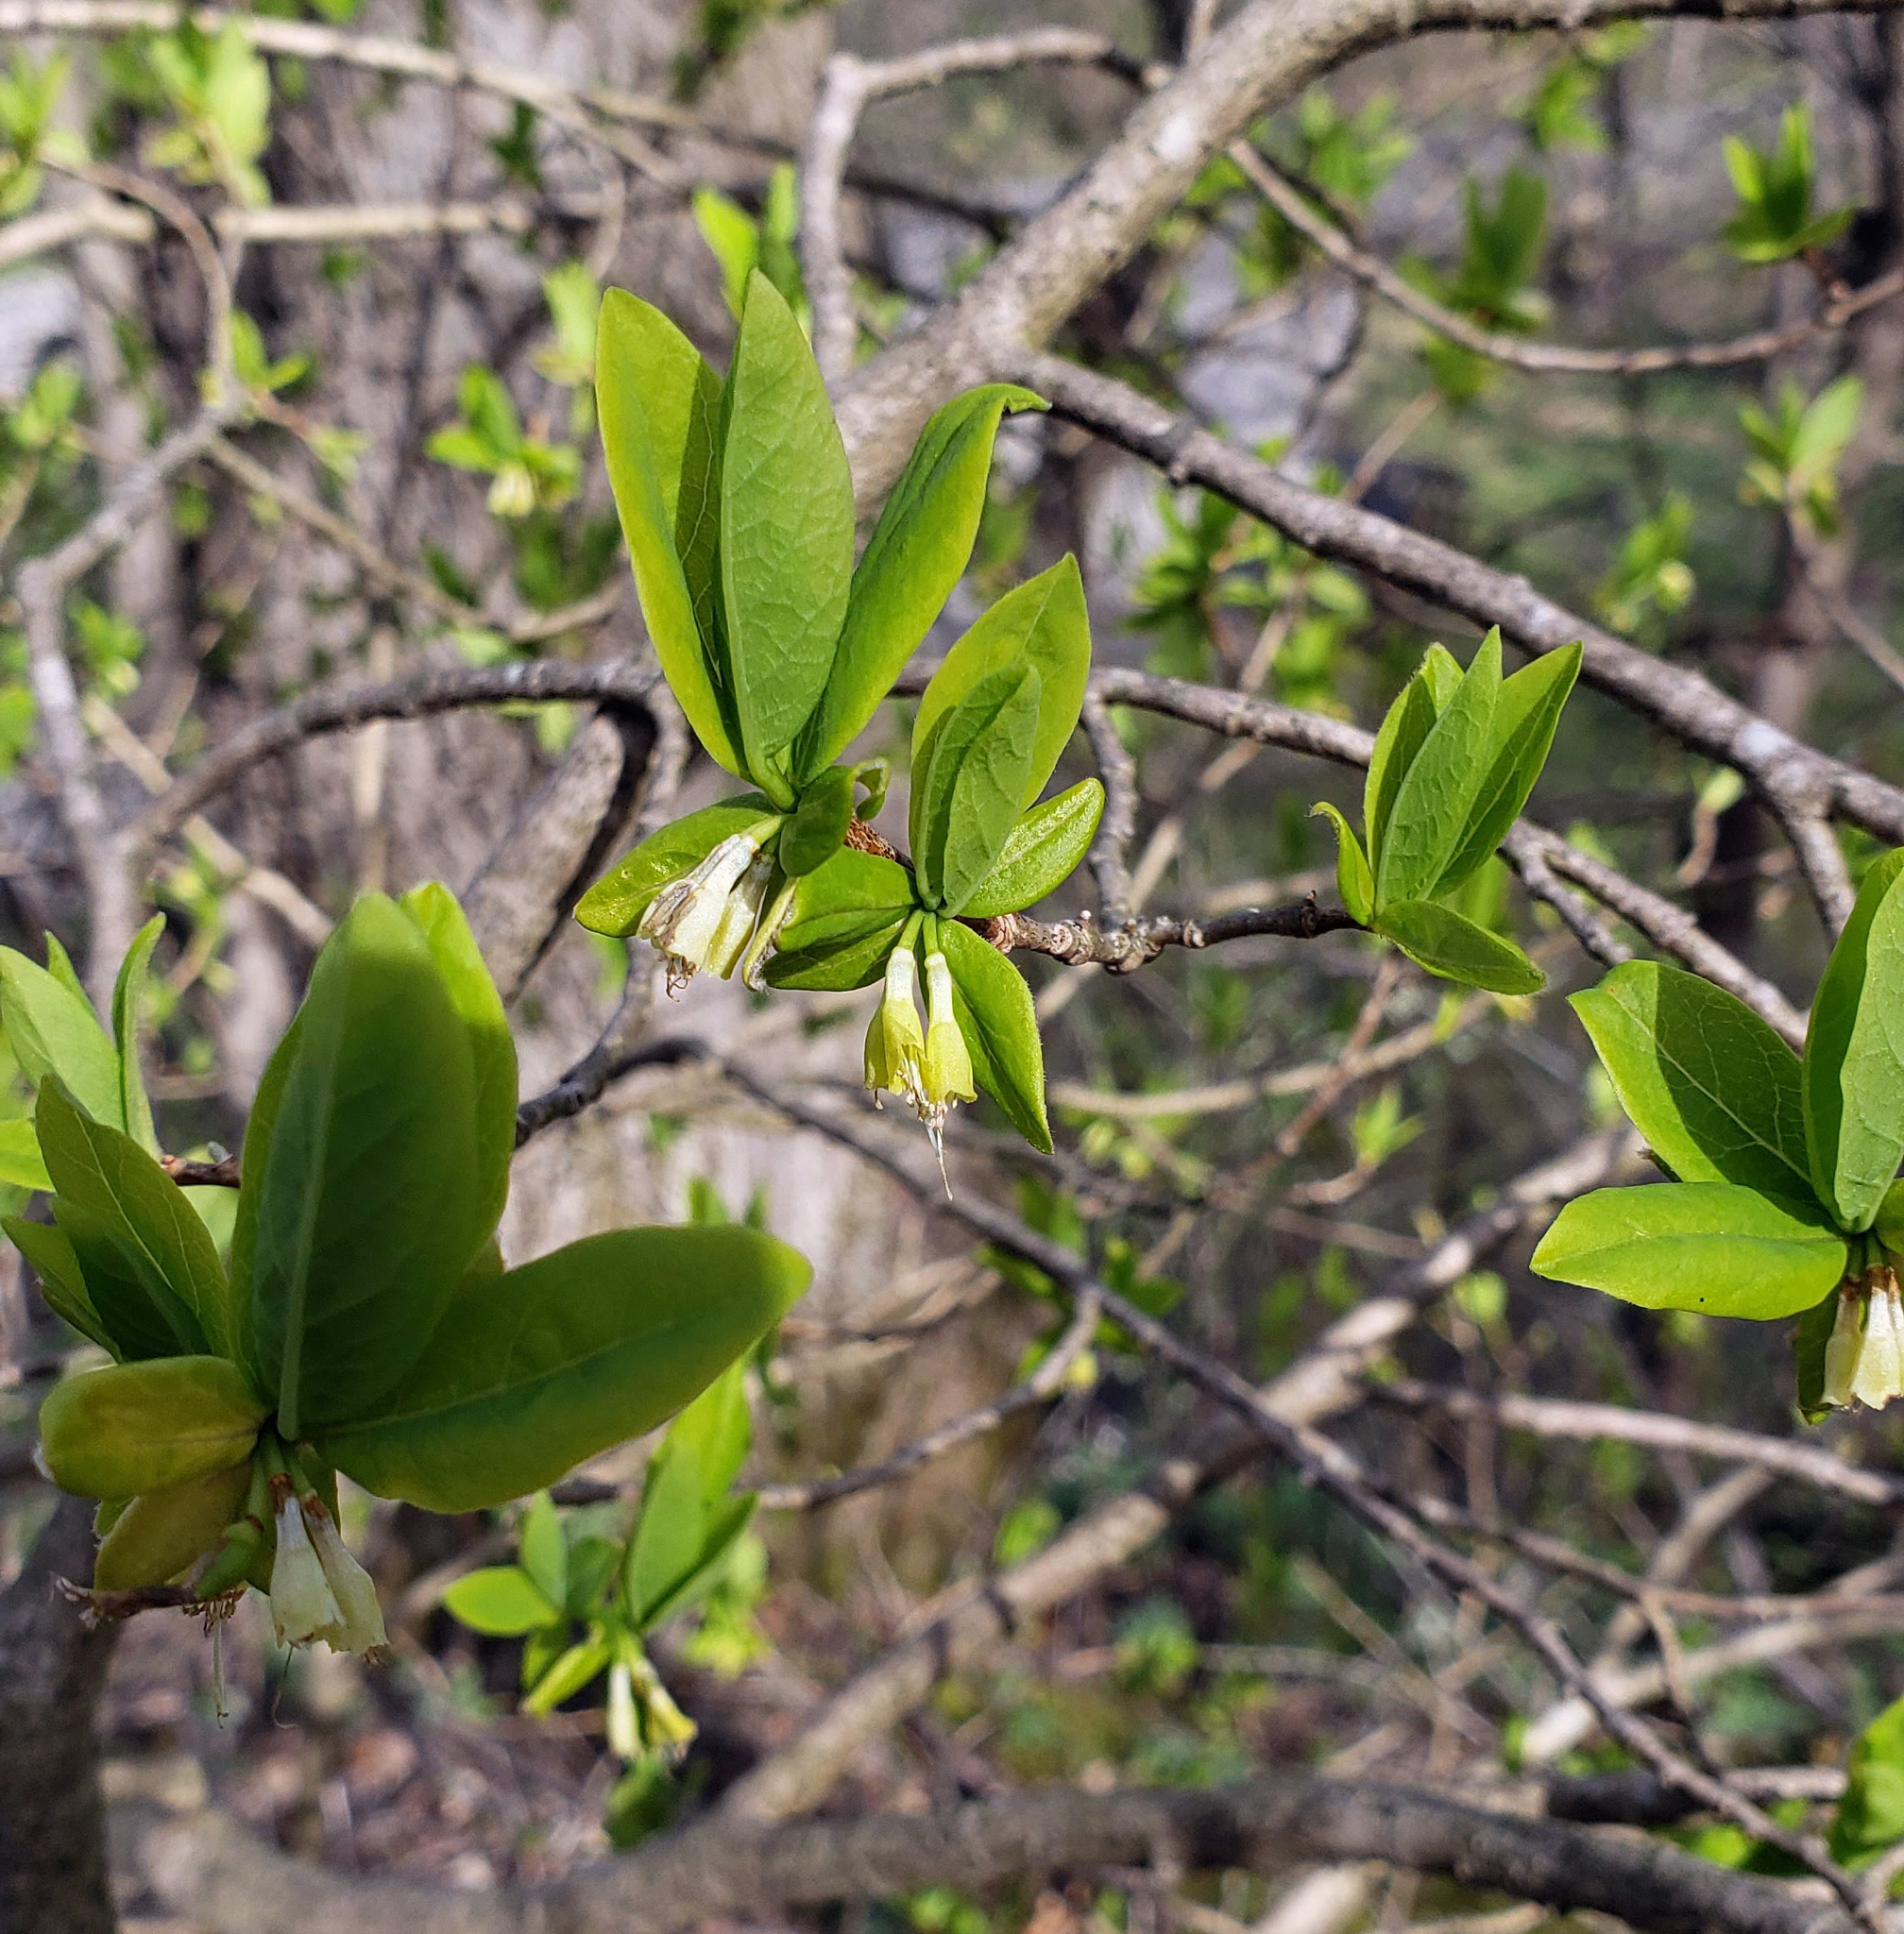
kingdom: Plantae
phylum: Tracheophyta
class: Magnoliopsida
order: Malvales
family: Thymelaeaceae
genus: Dirca
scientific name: Dirca palustris
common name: Leatherwood
